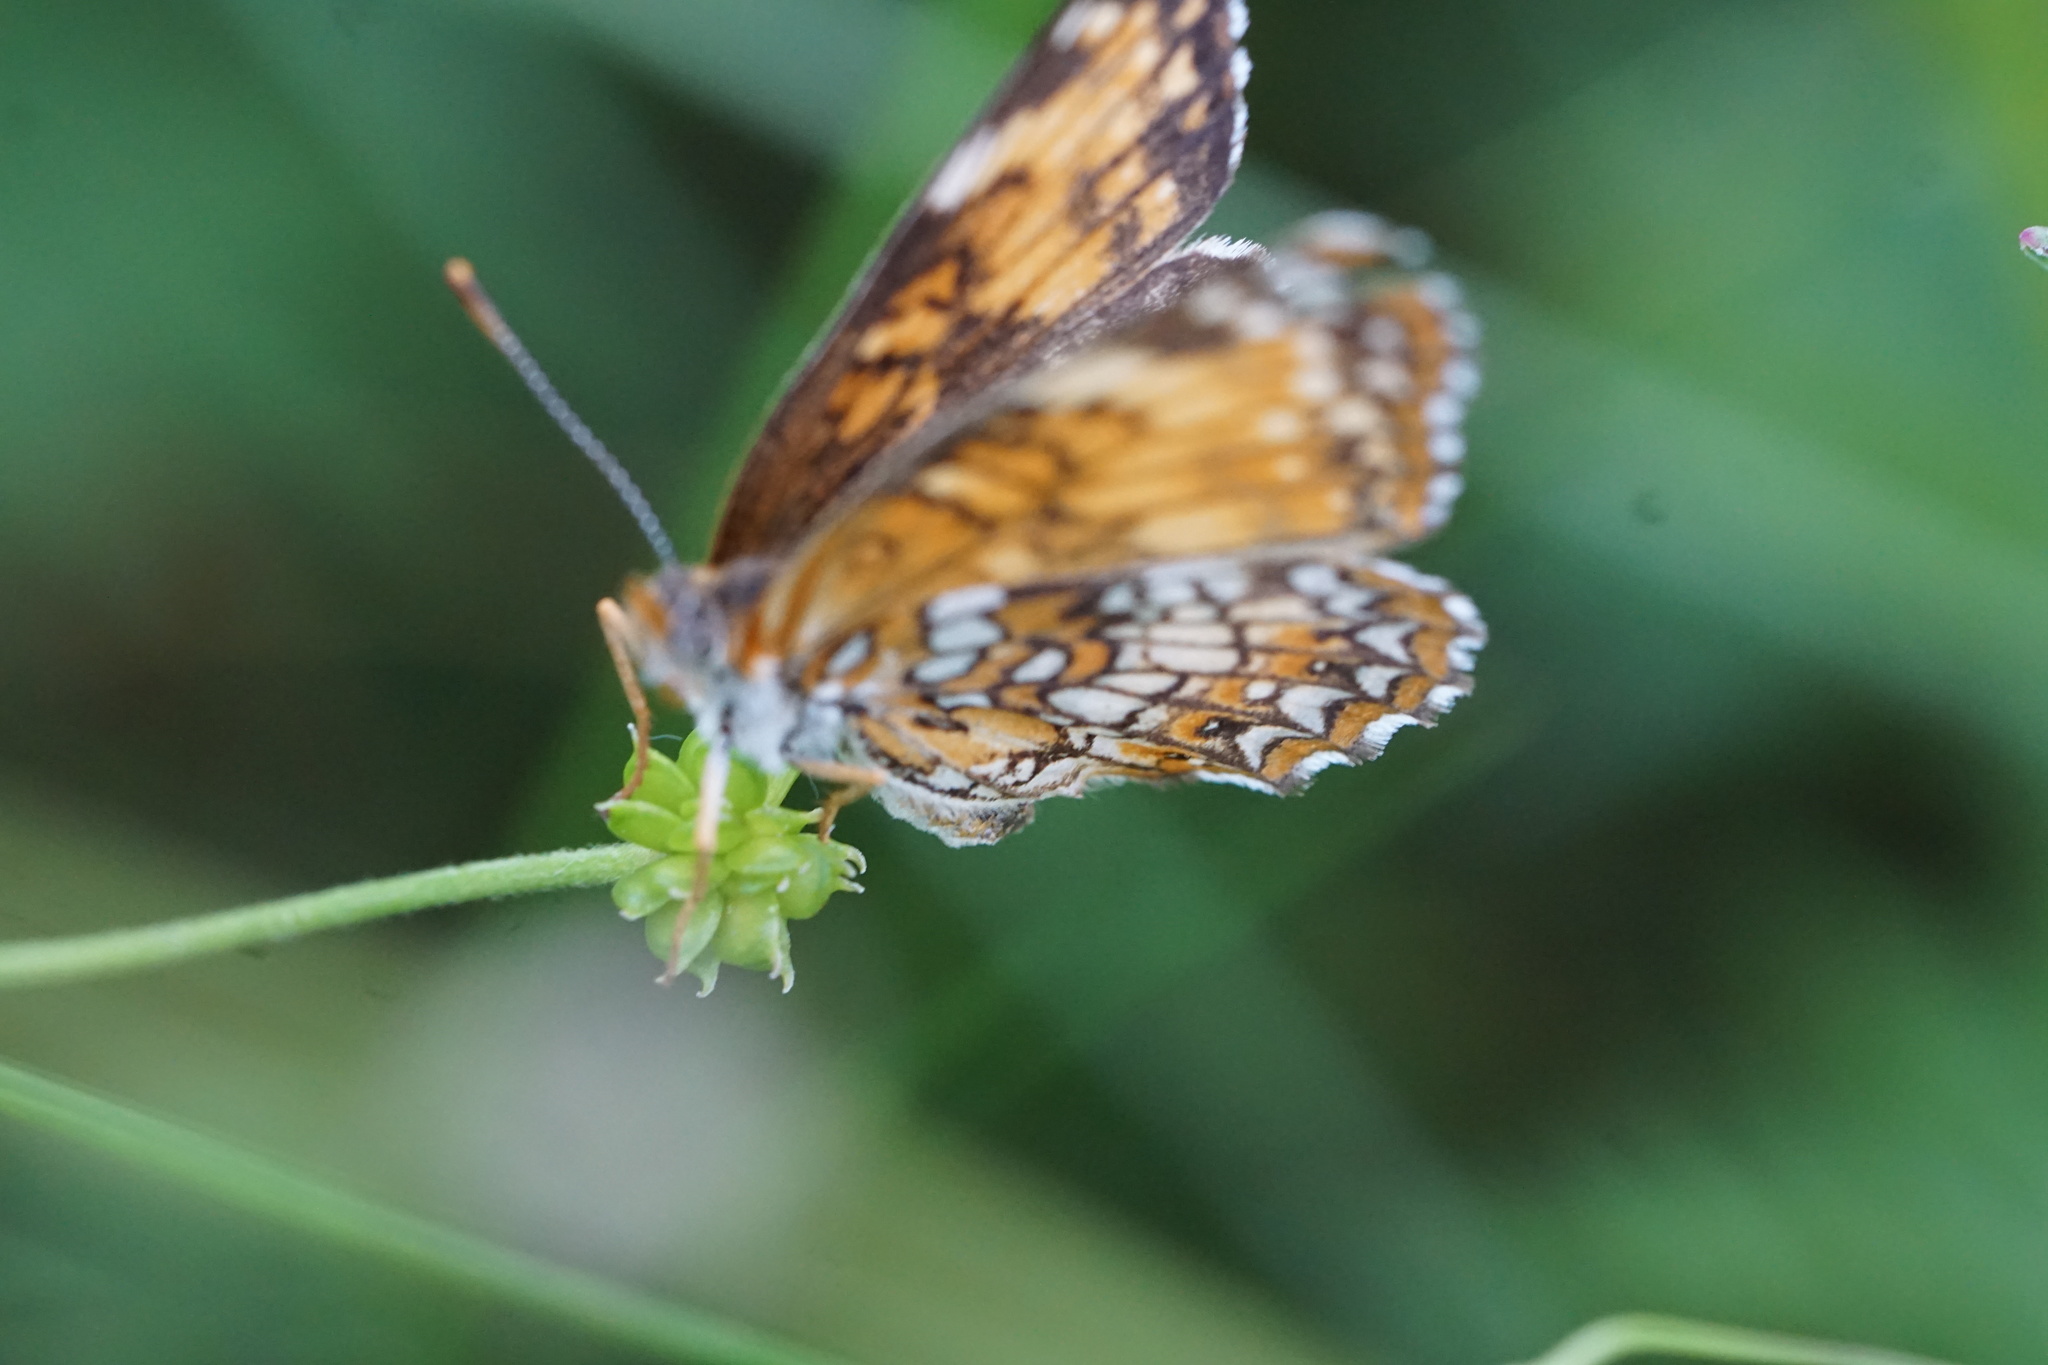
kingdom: Animalia
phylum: Arthropoda
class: Insecta
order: Lepidoptera
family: Nymphalidae
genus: Chlosyne
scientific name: Chlosyne harrisii
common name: Harris's checkerspot
